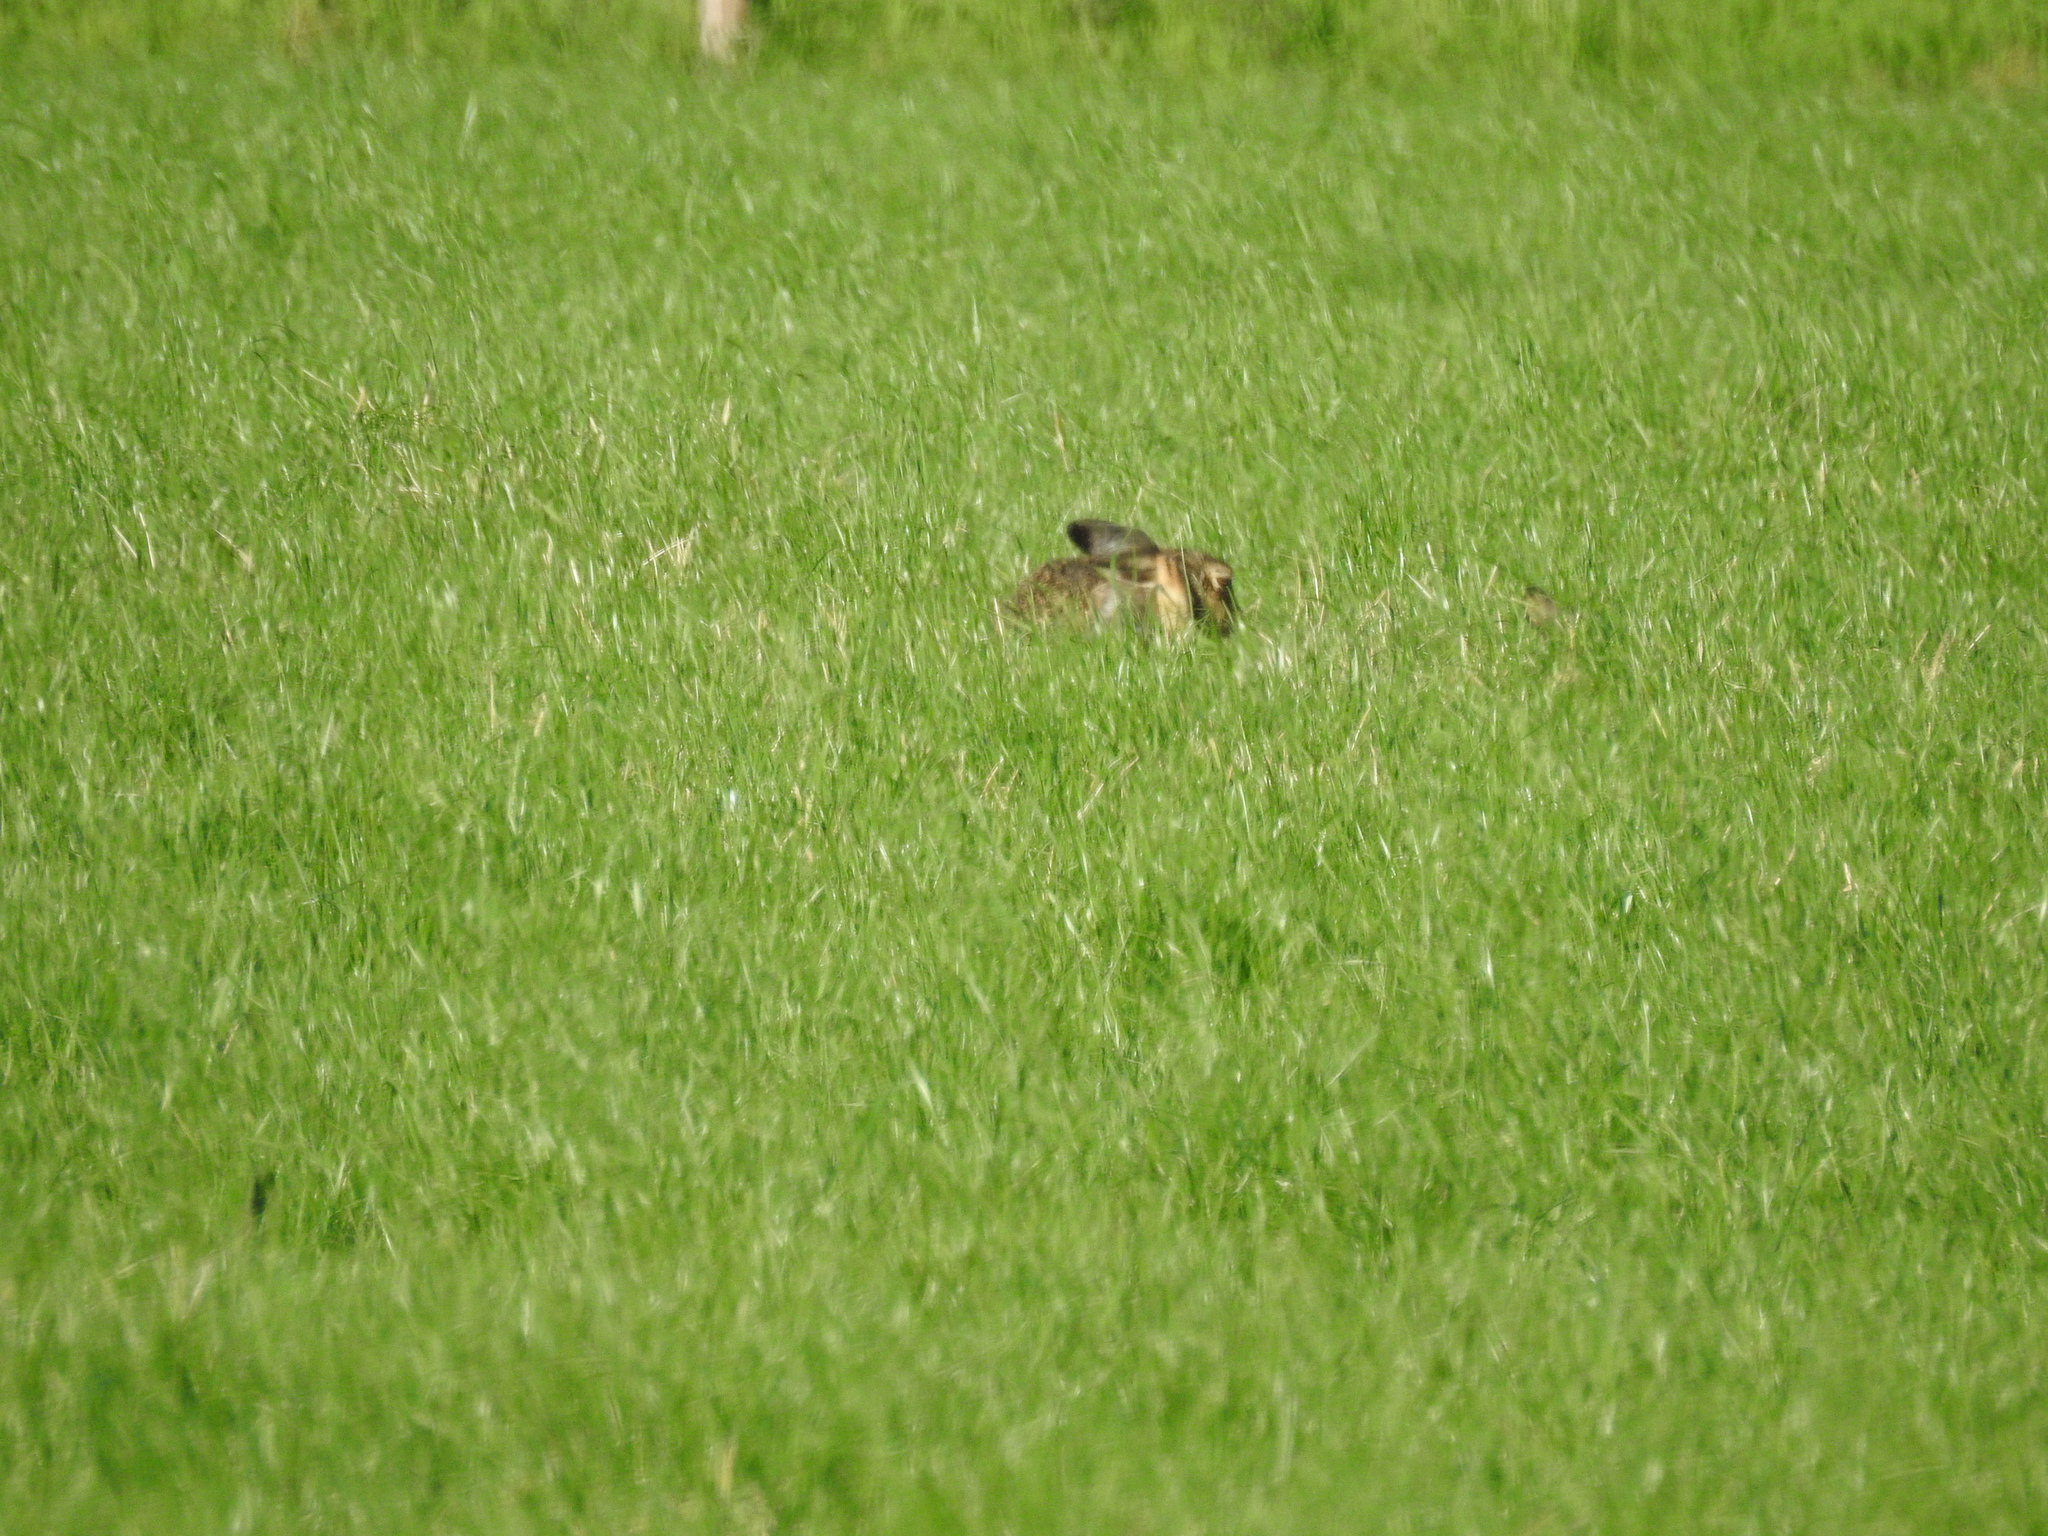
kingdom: Animalia
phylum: Chordata
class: Mammalia
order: Lagomorpha
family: Leporidae
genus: Lepus
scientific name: Lepus europaeus
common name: European hare
